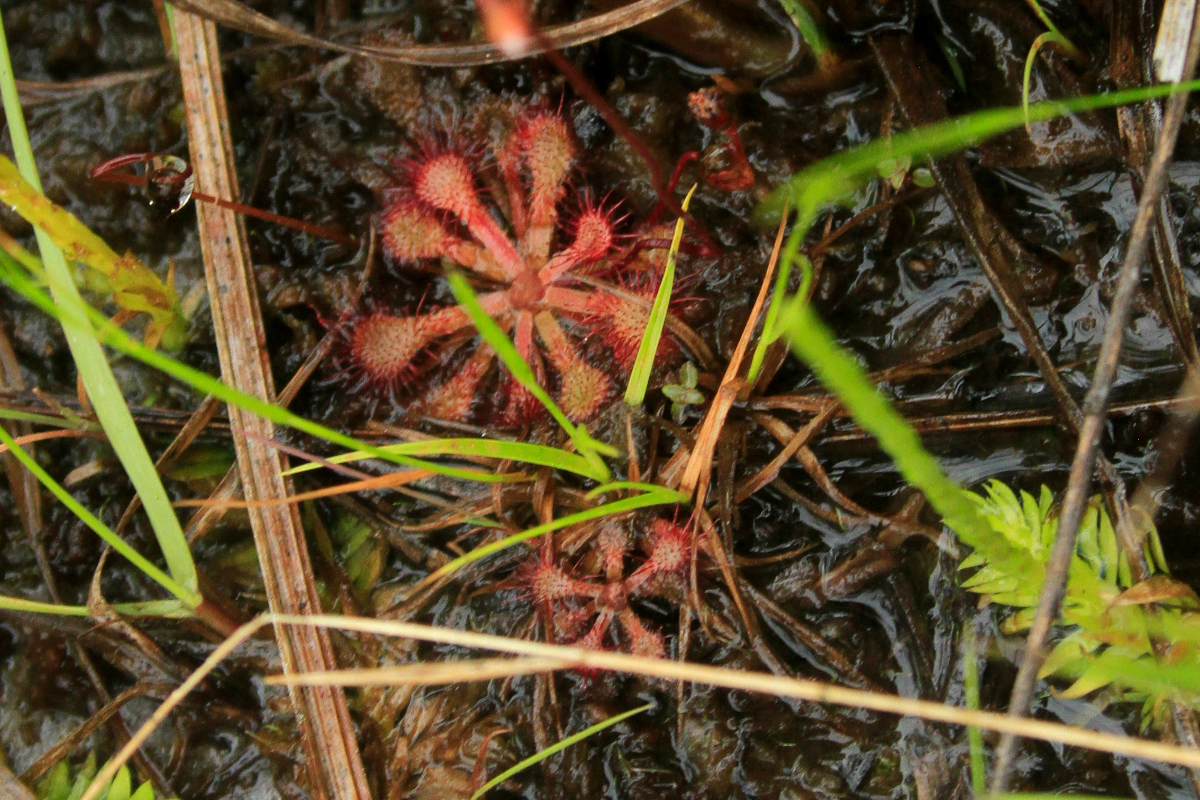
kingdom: Plantae
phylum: Tracheophyta
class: Magnoliopsida
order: Caryophyllales
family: Droseraceae
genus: Drosera
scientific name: Drosera capillaris
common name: Pink sundew
